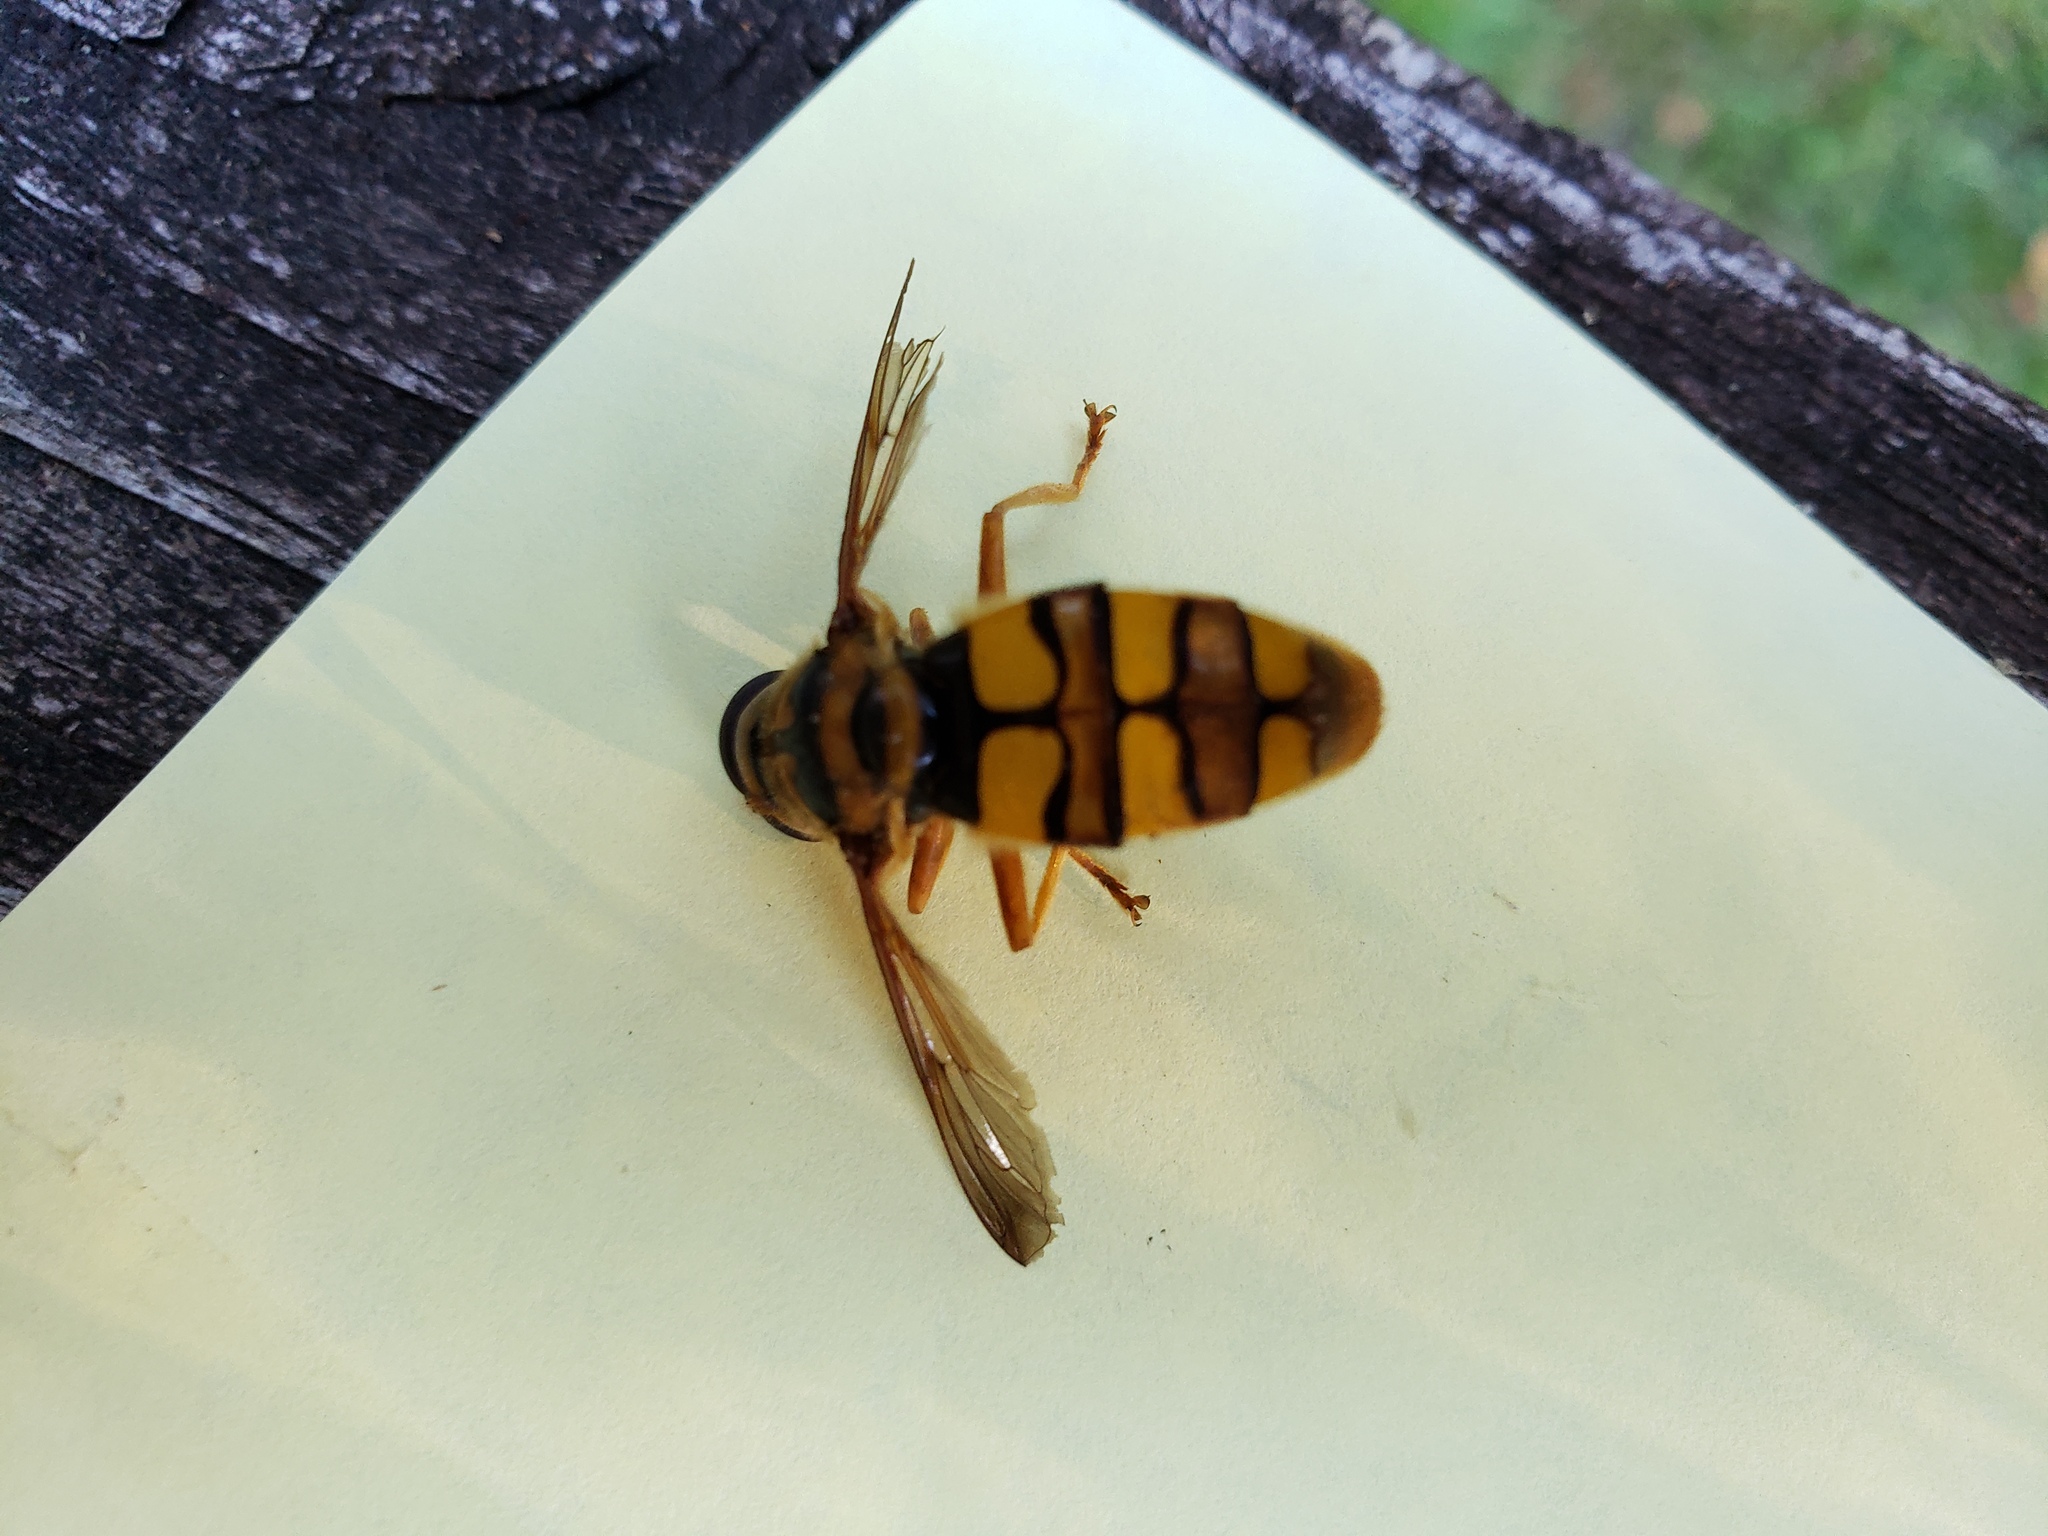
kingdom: Animalia
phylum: Arthropoda
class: Insecta
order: Diptera
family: Syrphidae
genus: Milesia
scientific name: Milesia virginiensis
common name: Virginia giant
